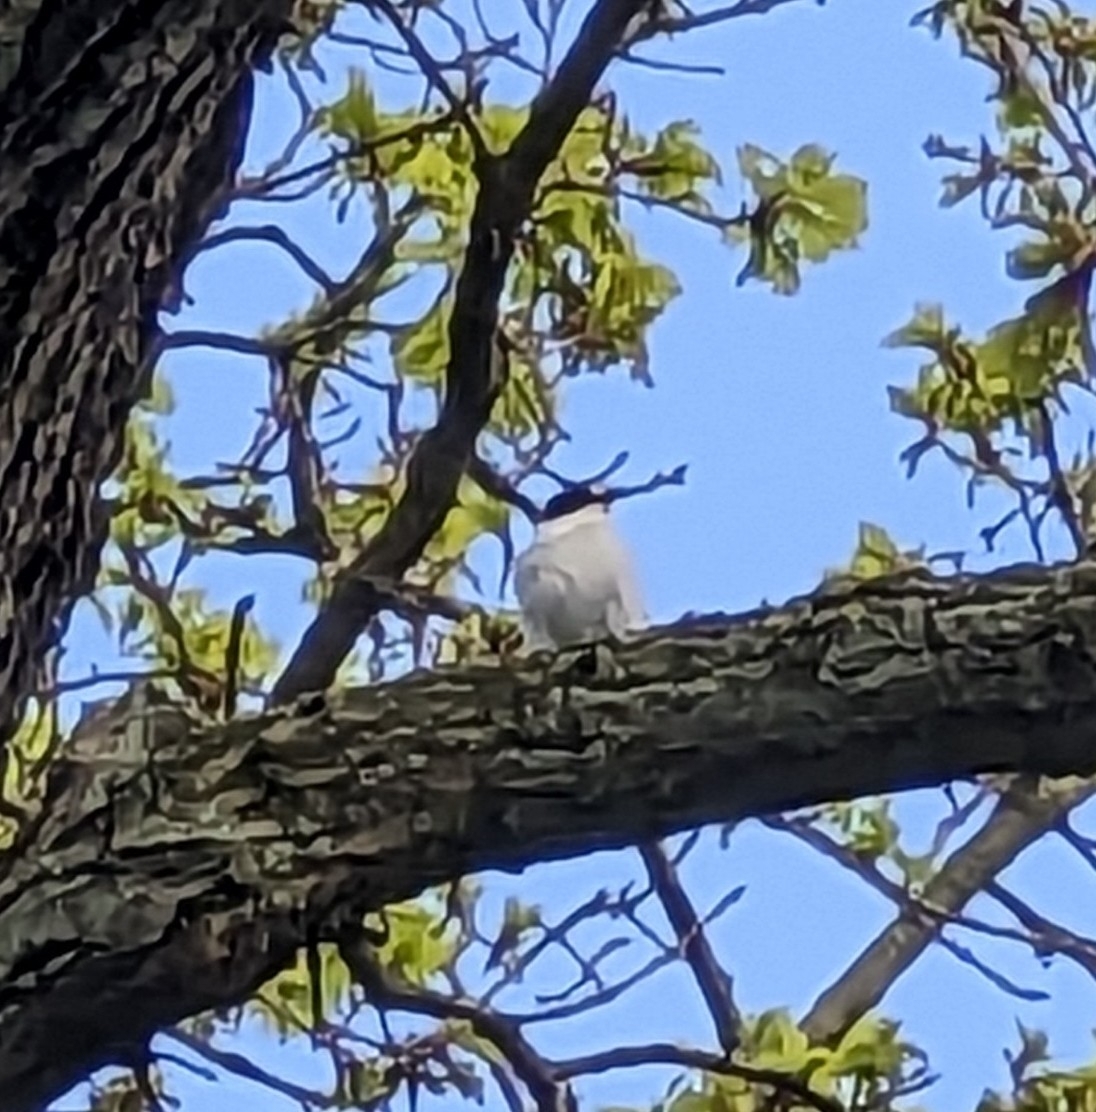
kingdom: Animalia
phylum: Chordata
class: Aves
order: Passeriformes
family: Muscicapidae
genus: Ficedula
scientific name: Ficedula albicollis
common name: Collared flycatcher
